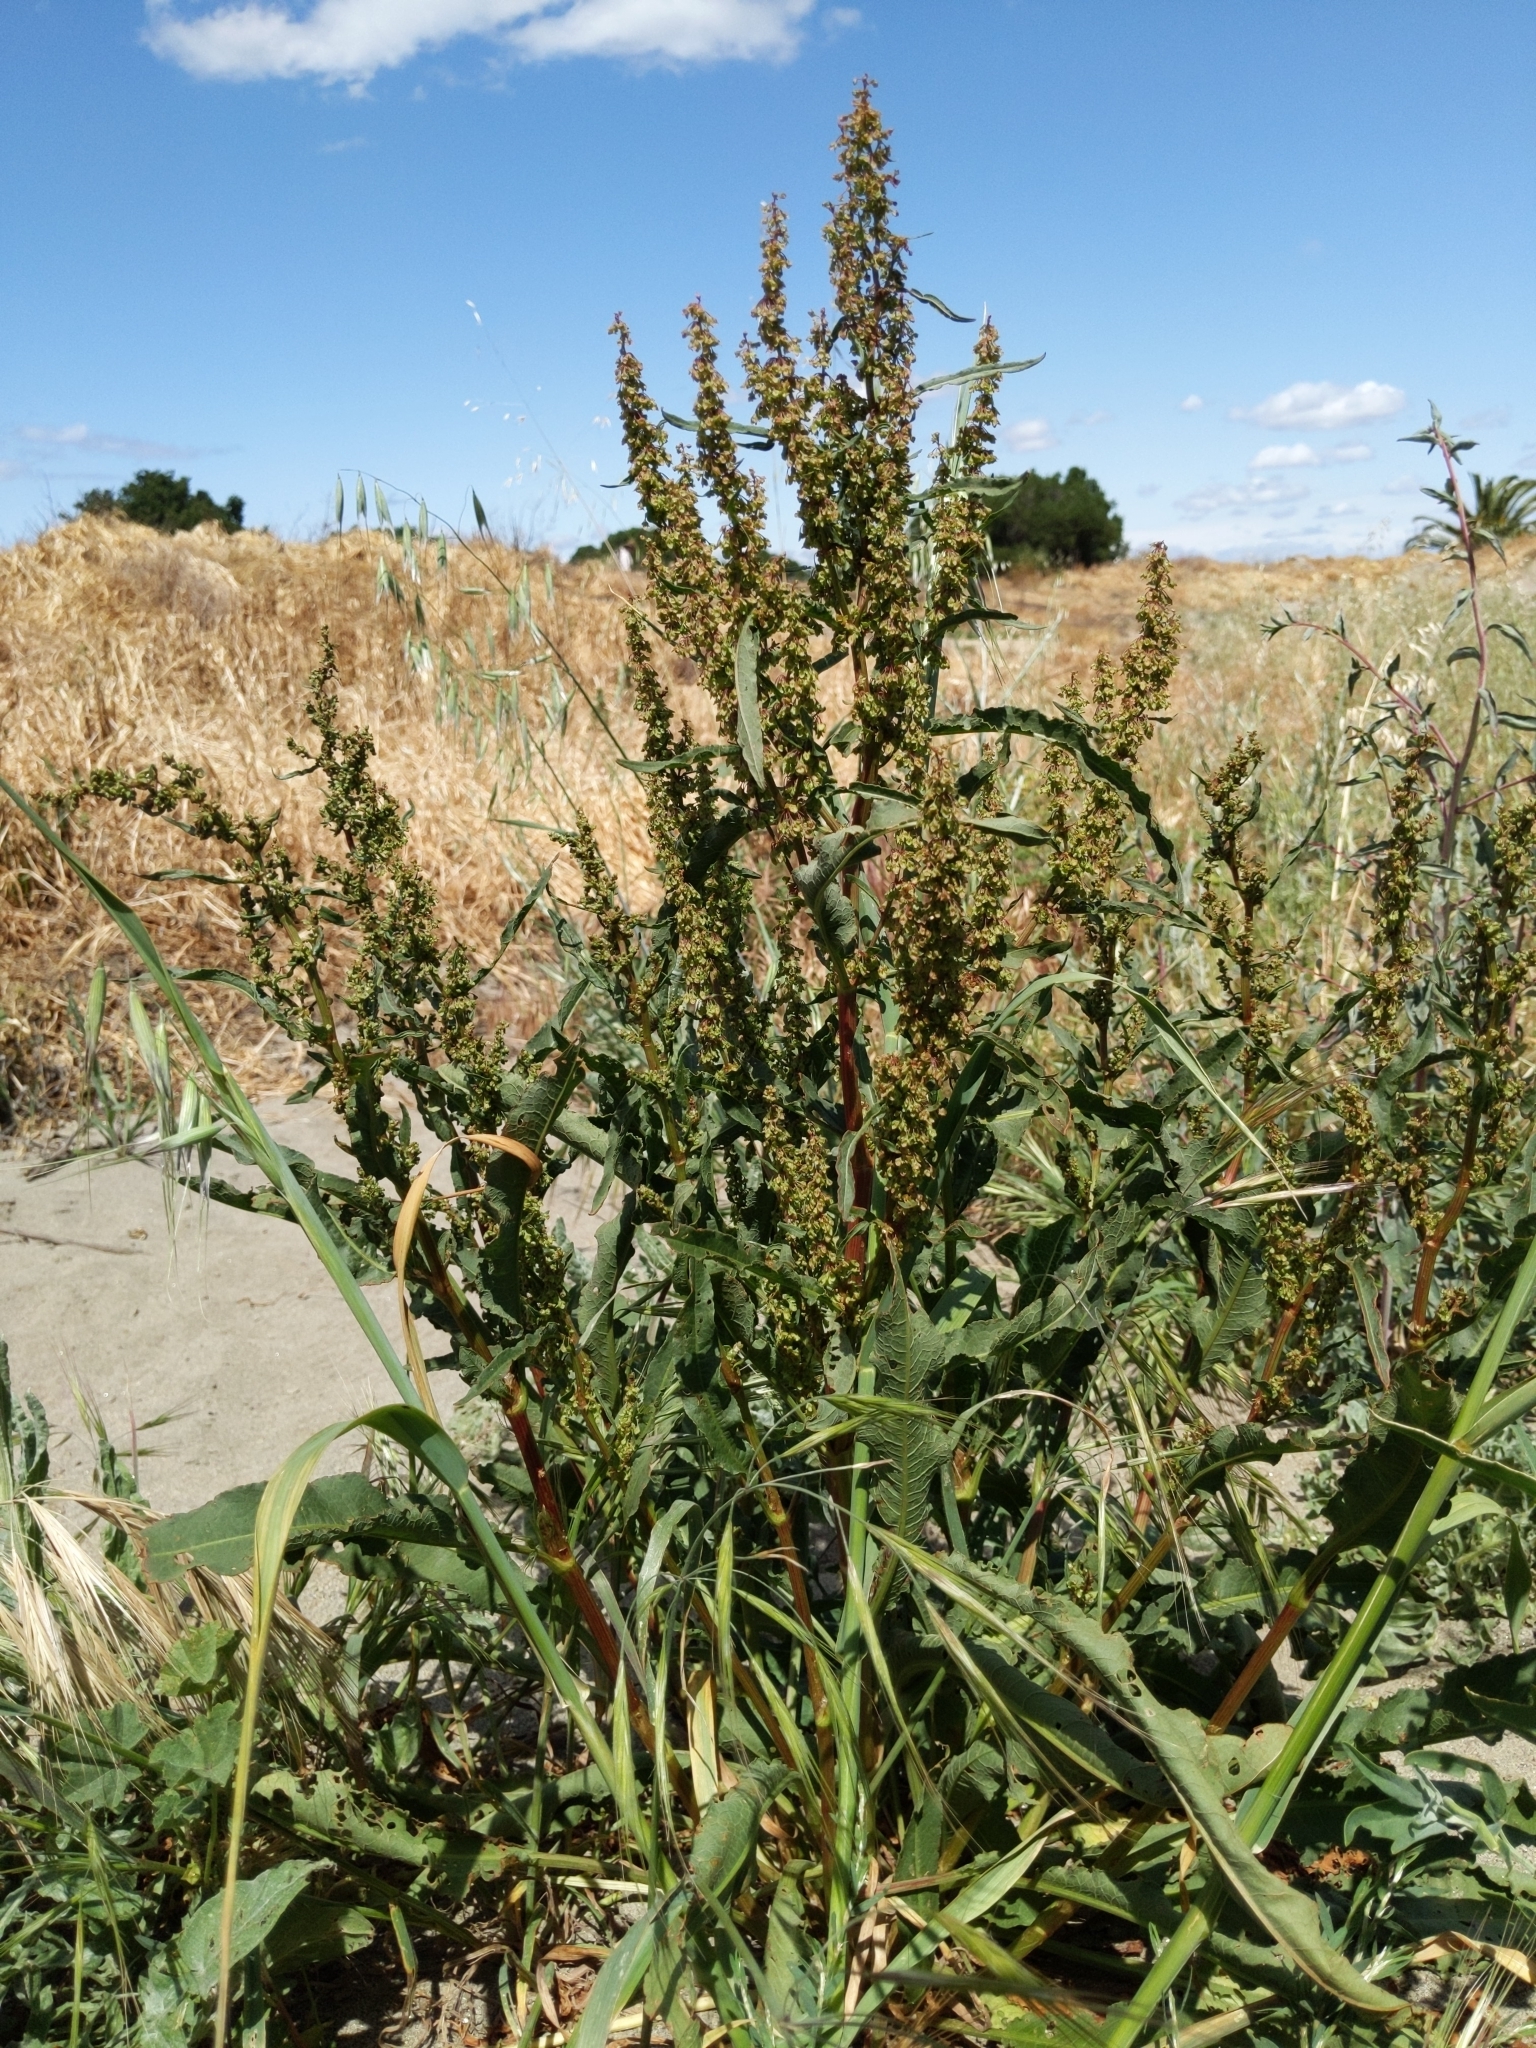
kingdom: Plantae
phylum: Tracheophyta
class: Magnoliopsida
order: Caryophyllales
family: Polygonaceae
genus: Rumex
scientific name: Rumex crispus
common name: Curled dock
